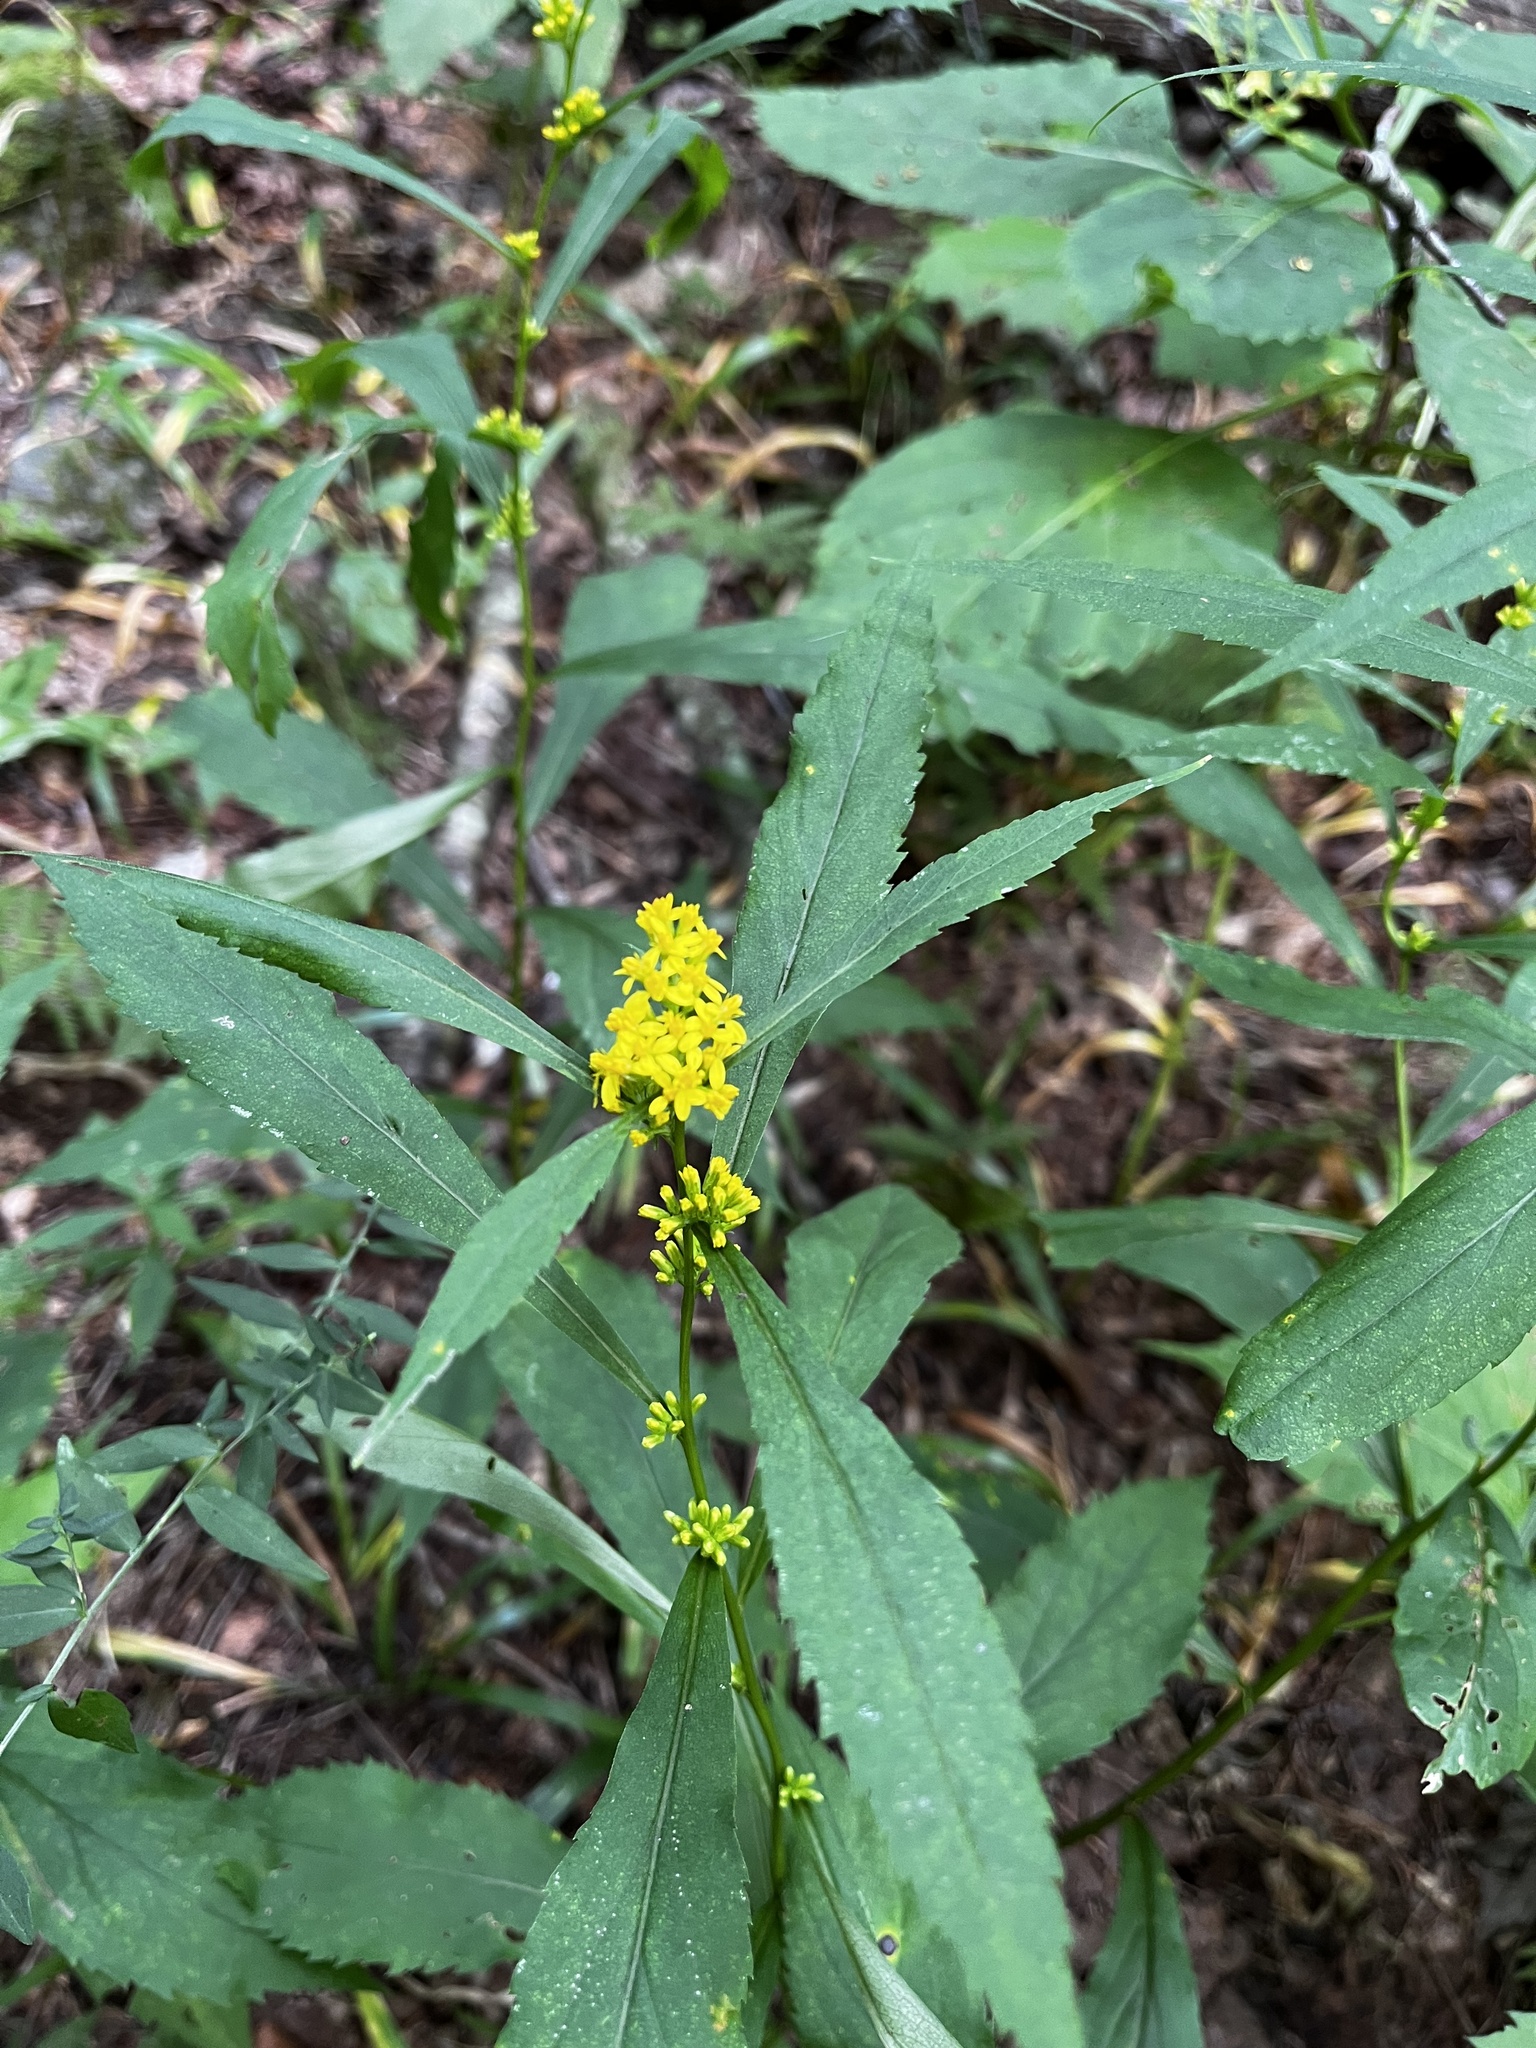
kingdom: Plantae
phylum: Tracheophyta
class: Magnoliopsida
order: Asterales
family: Asteraceae
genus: Solidago
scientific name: Solidago caesia
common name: Woodland goldenrod
